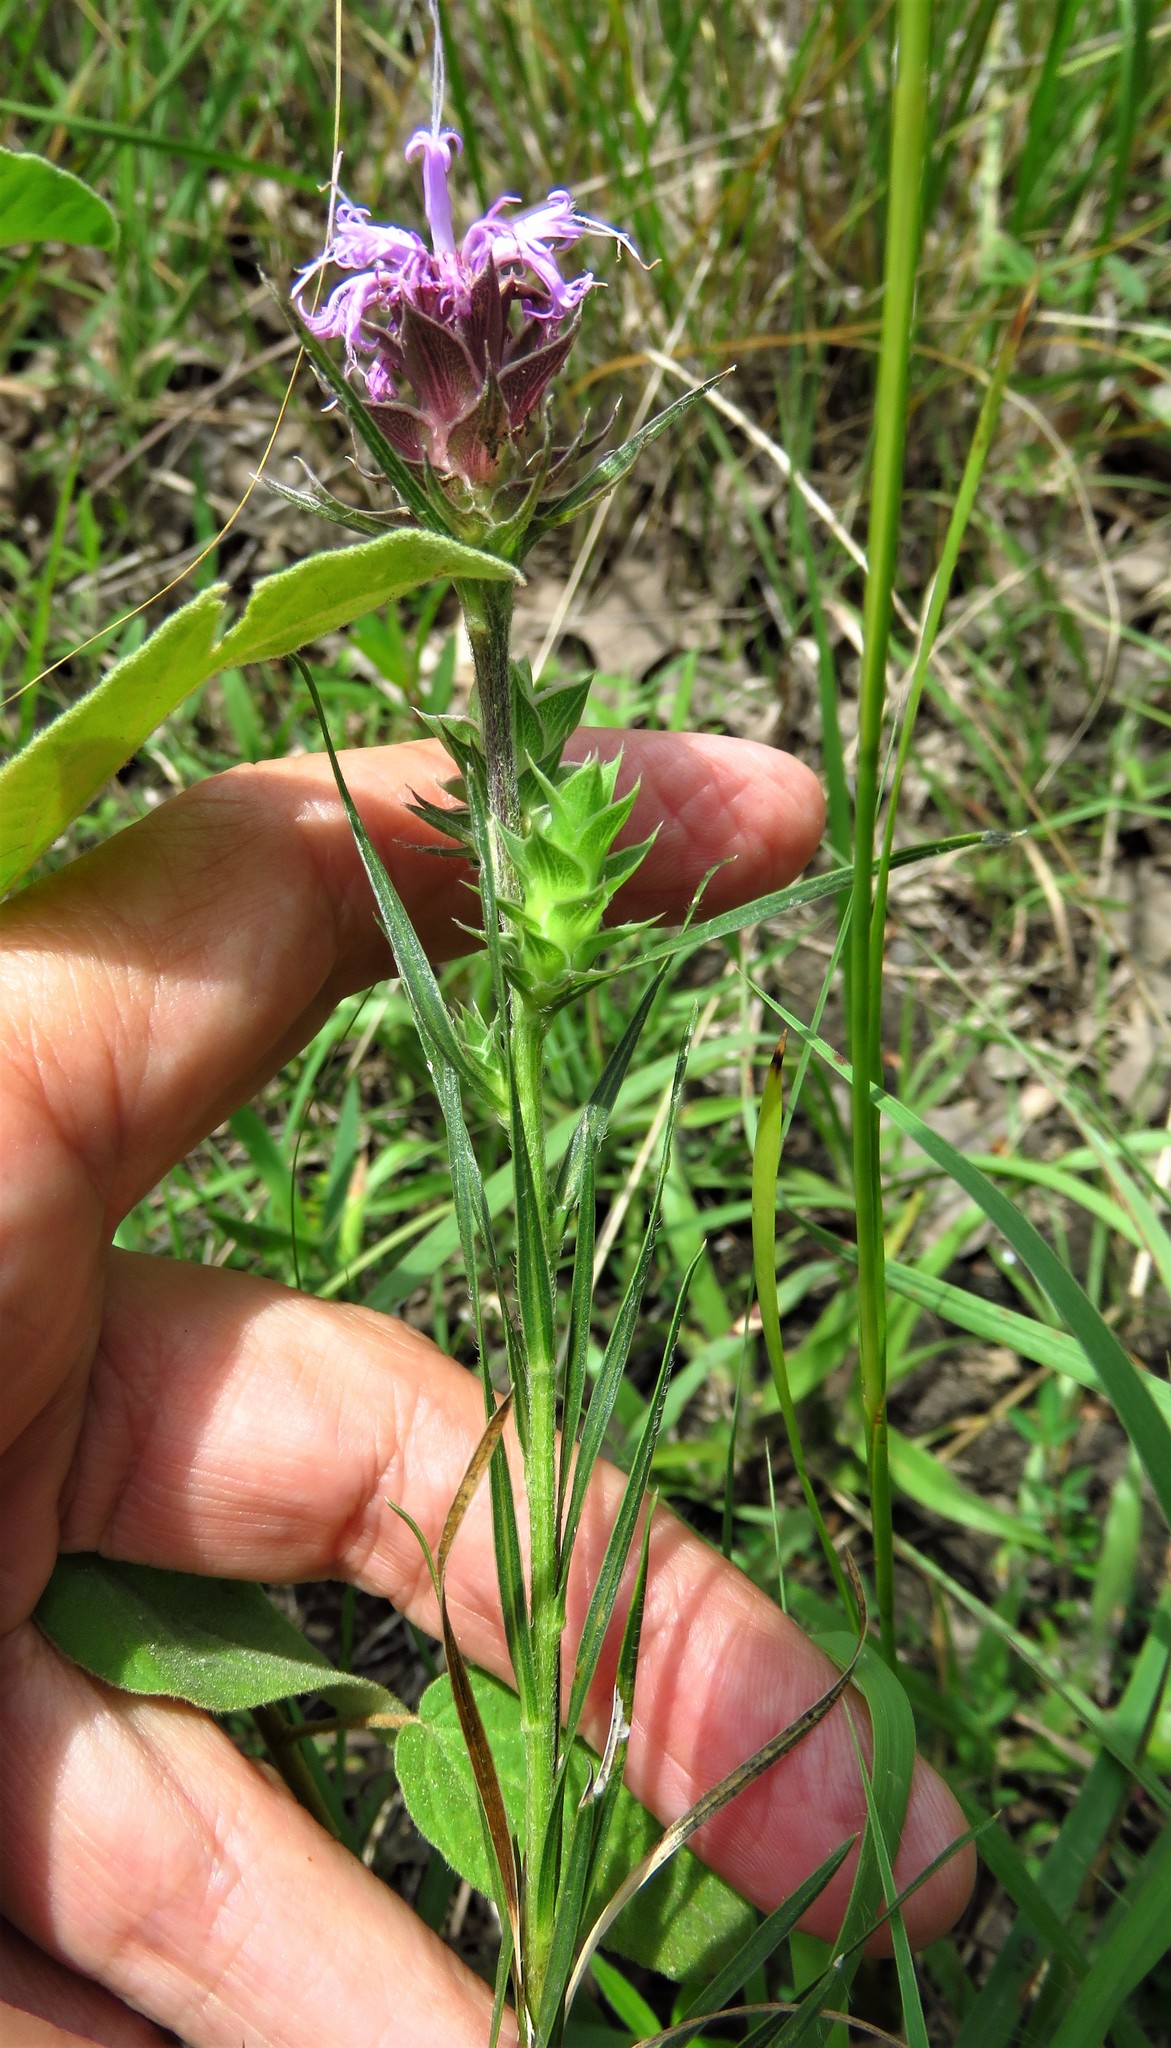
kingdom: Plantae
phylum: Tracheophyta
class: Magnoliopsida
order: Asterales
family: Asteraceae
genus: Liatris
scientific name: Liatris squarrosa
